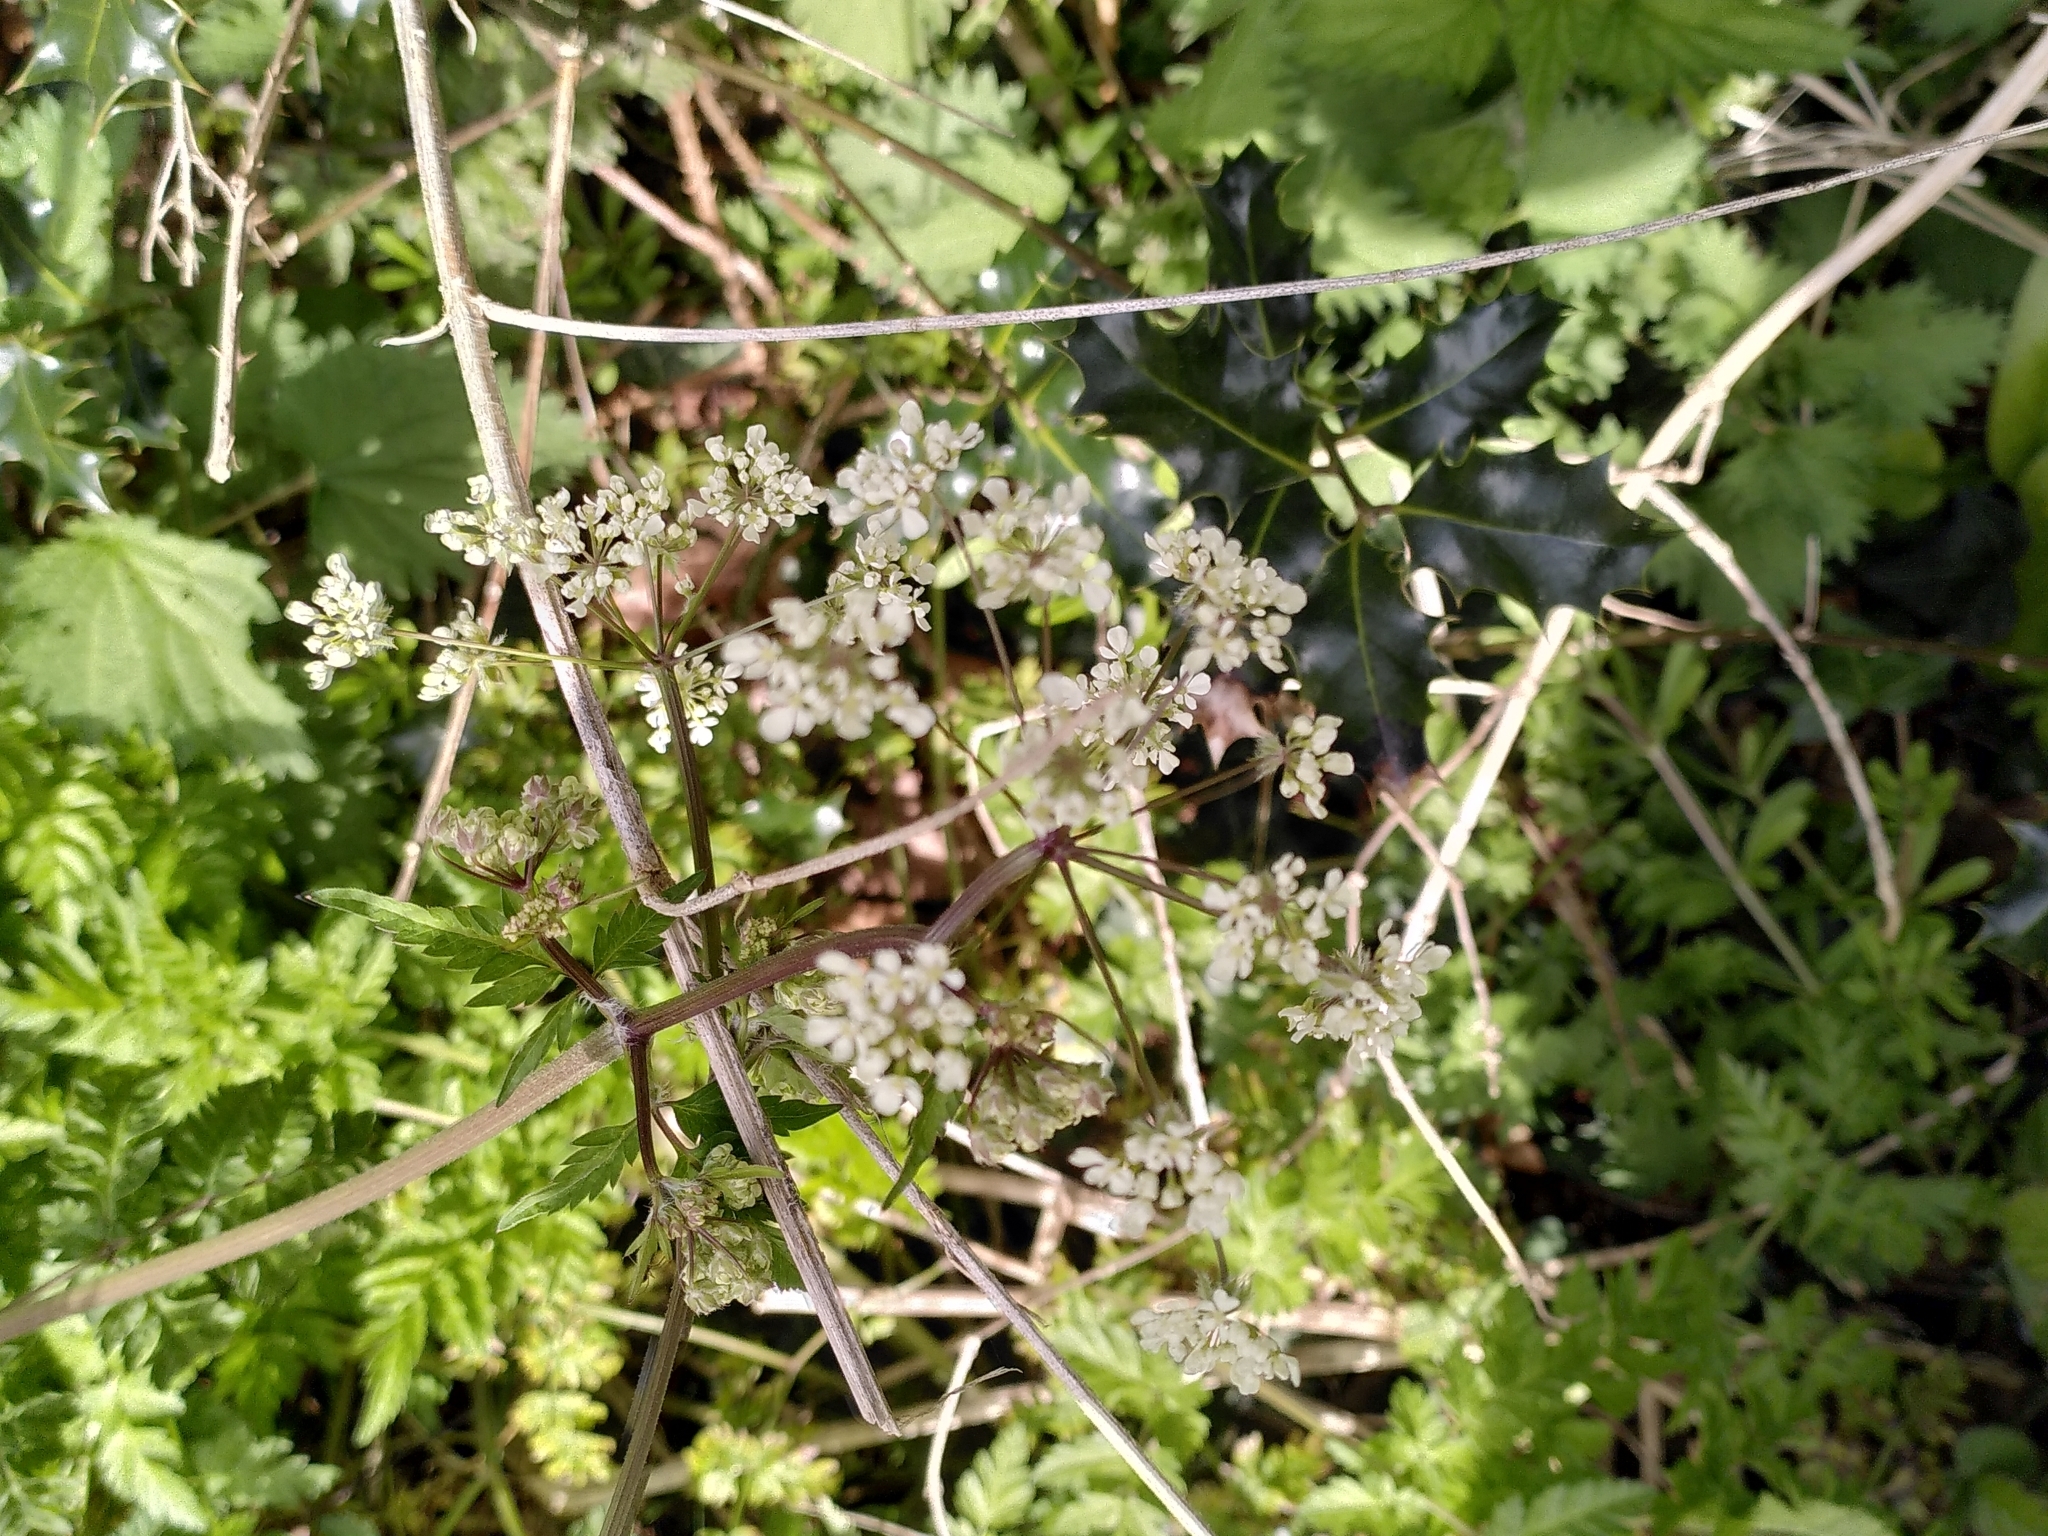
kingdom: Plantae
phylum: Tracheophyta
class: Magnoliopsida
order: Apiales
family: Apiaceae
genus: Anthriscus
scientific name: Anthriscus sylvestris
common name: Cow parsley
